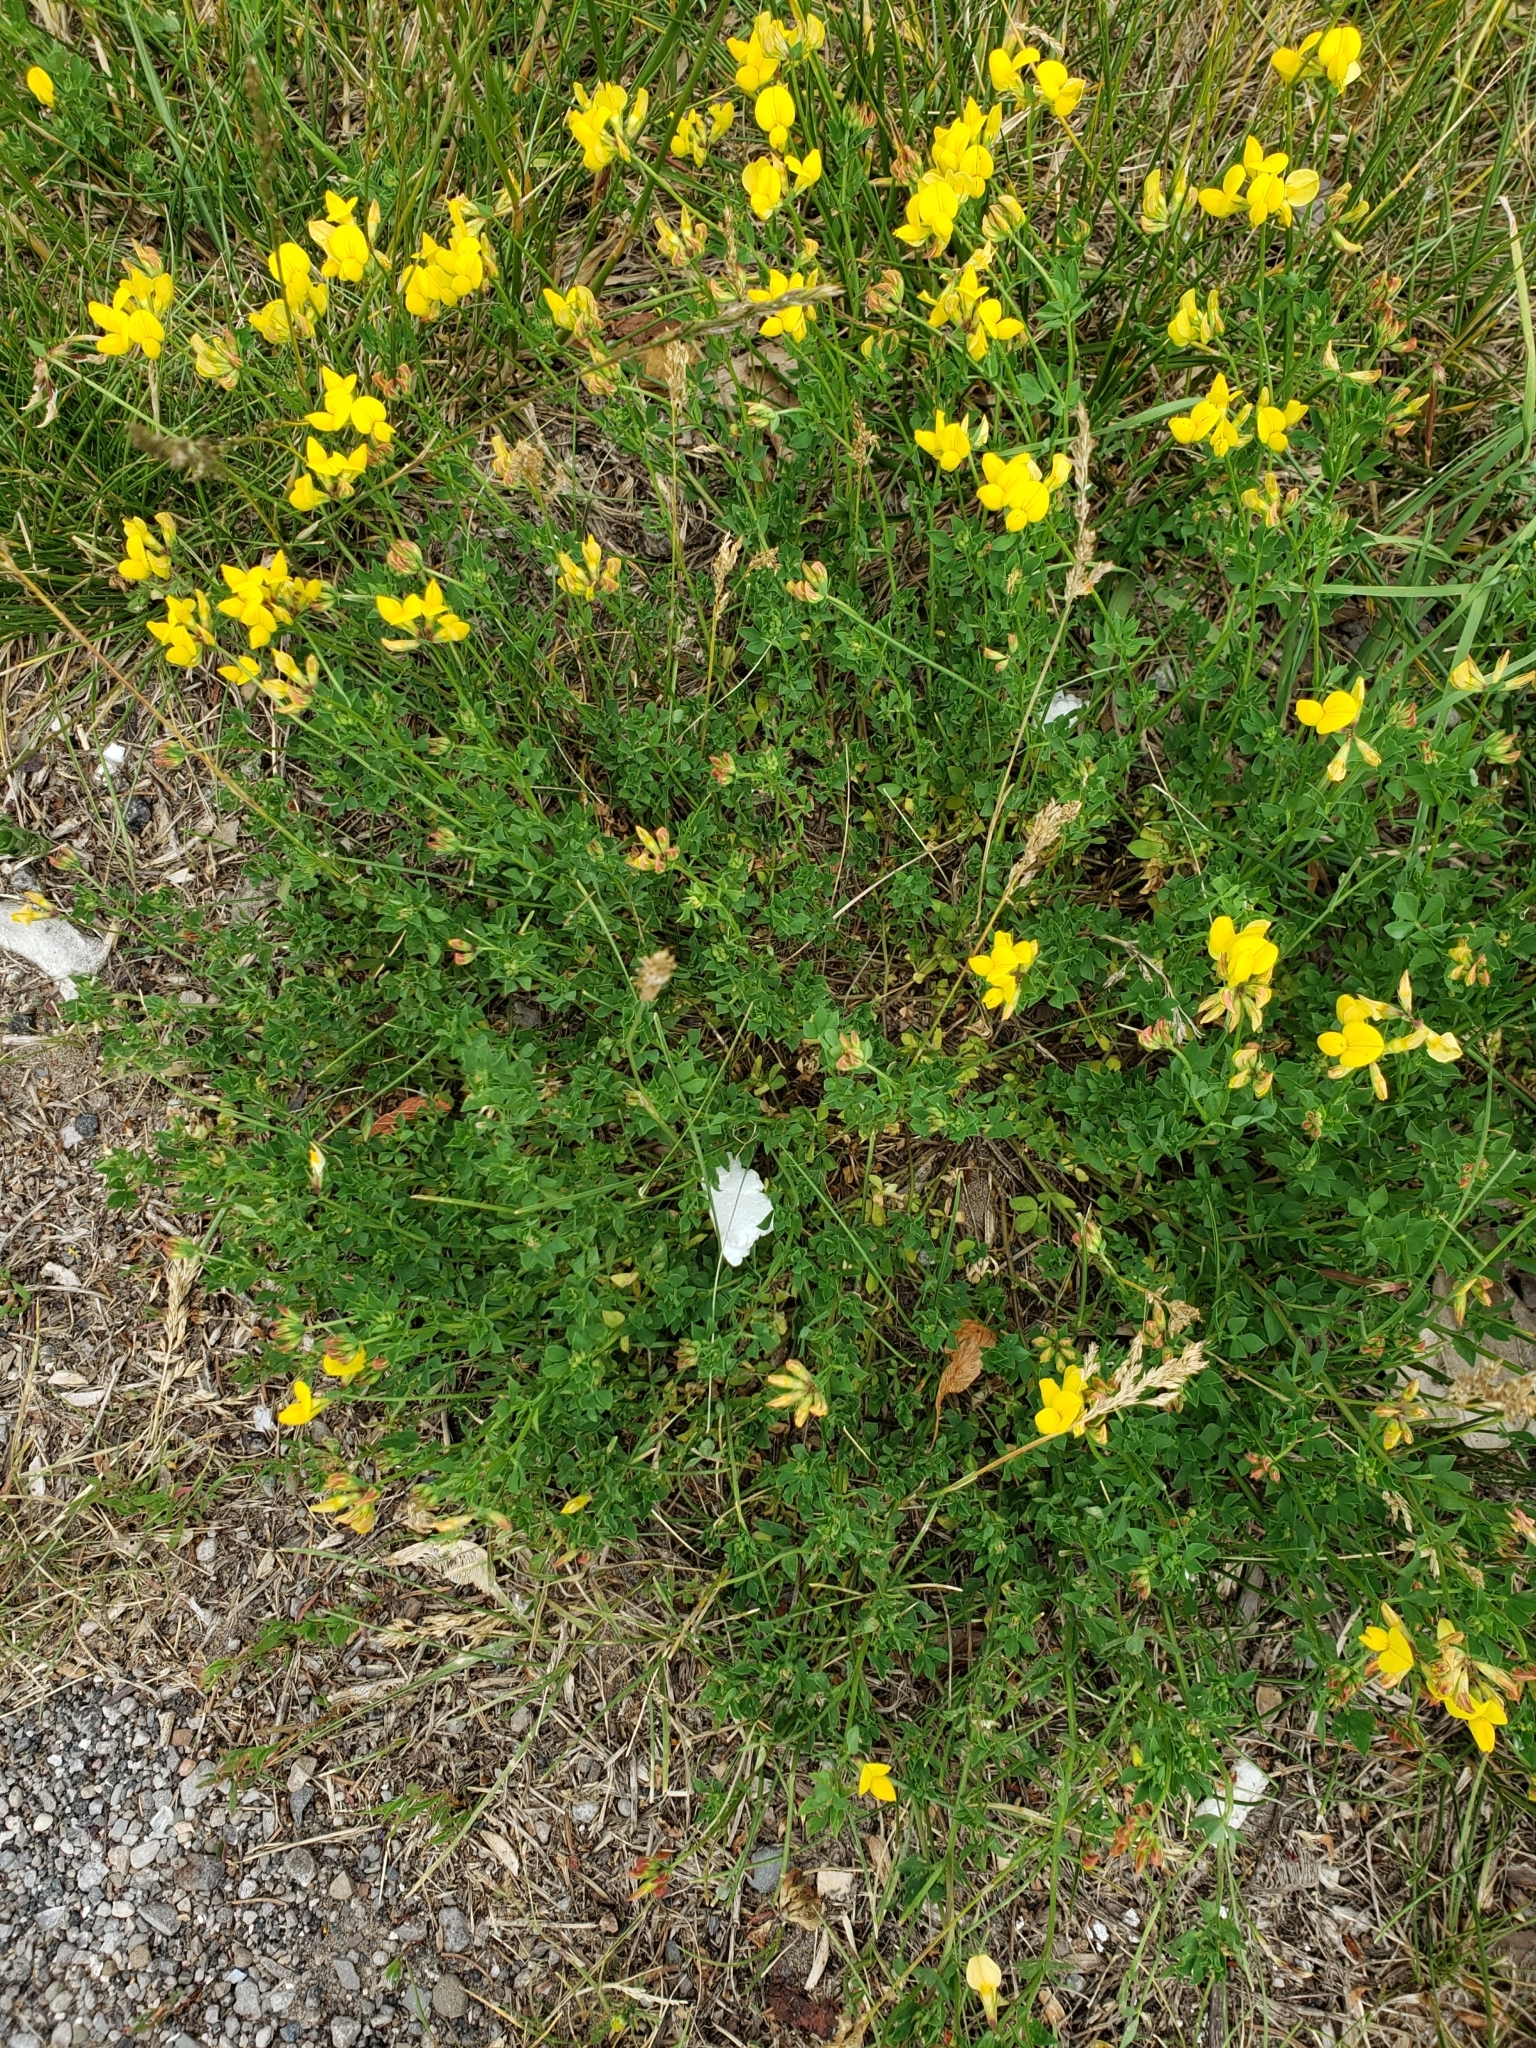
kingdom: Plantae
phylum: Tracheophyta
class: Magnoliopsida
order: Fabales
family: Fabaceae
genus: Lotus
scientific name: Lotus corniculatus
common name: Common bird's-foot-trefoil
